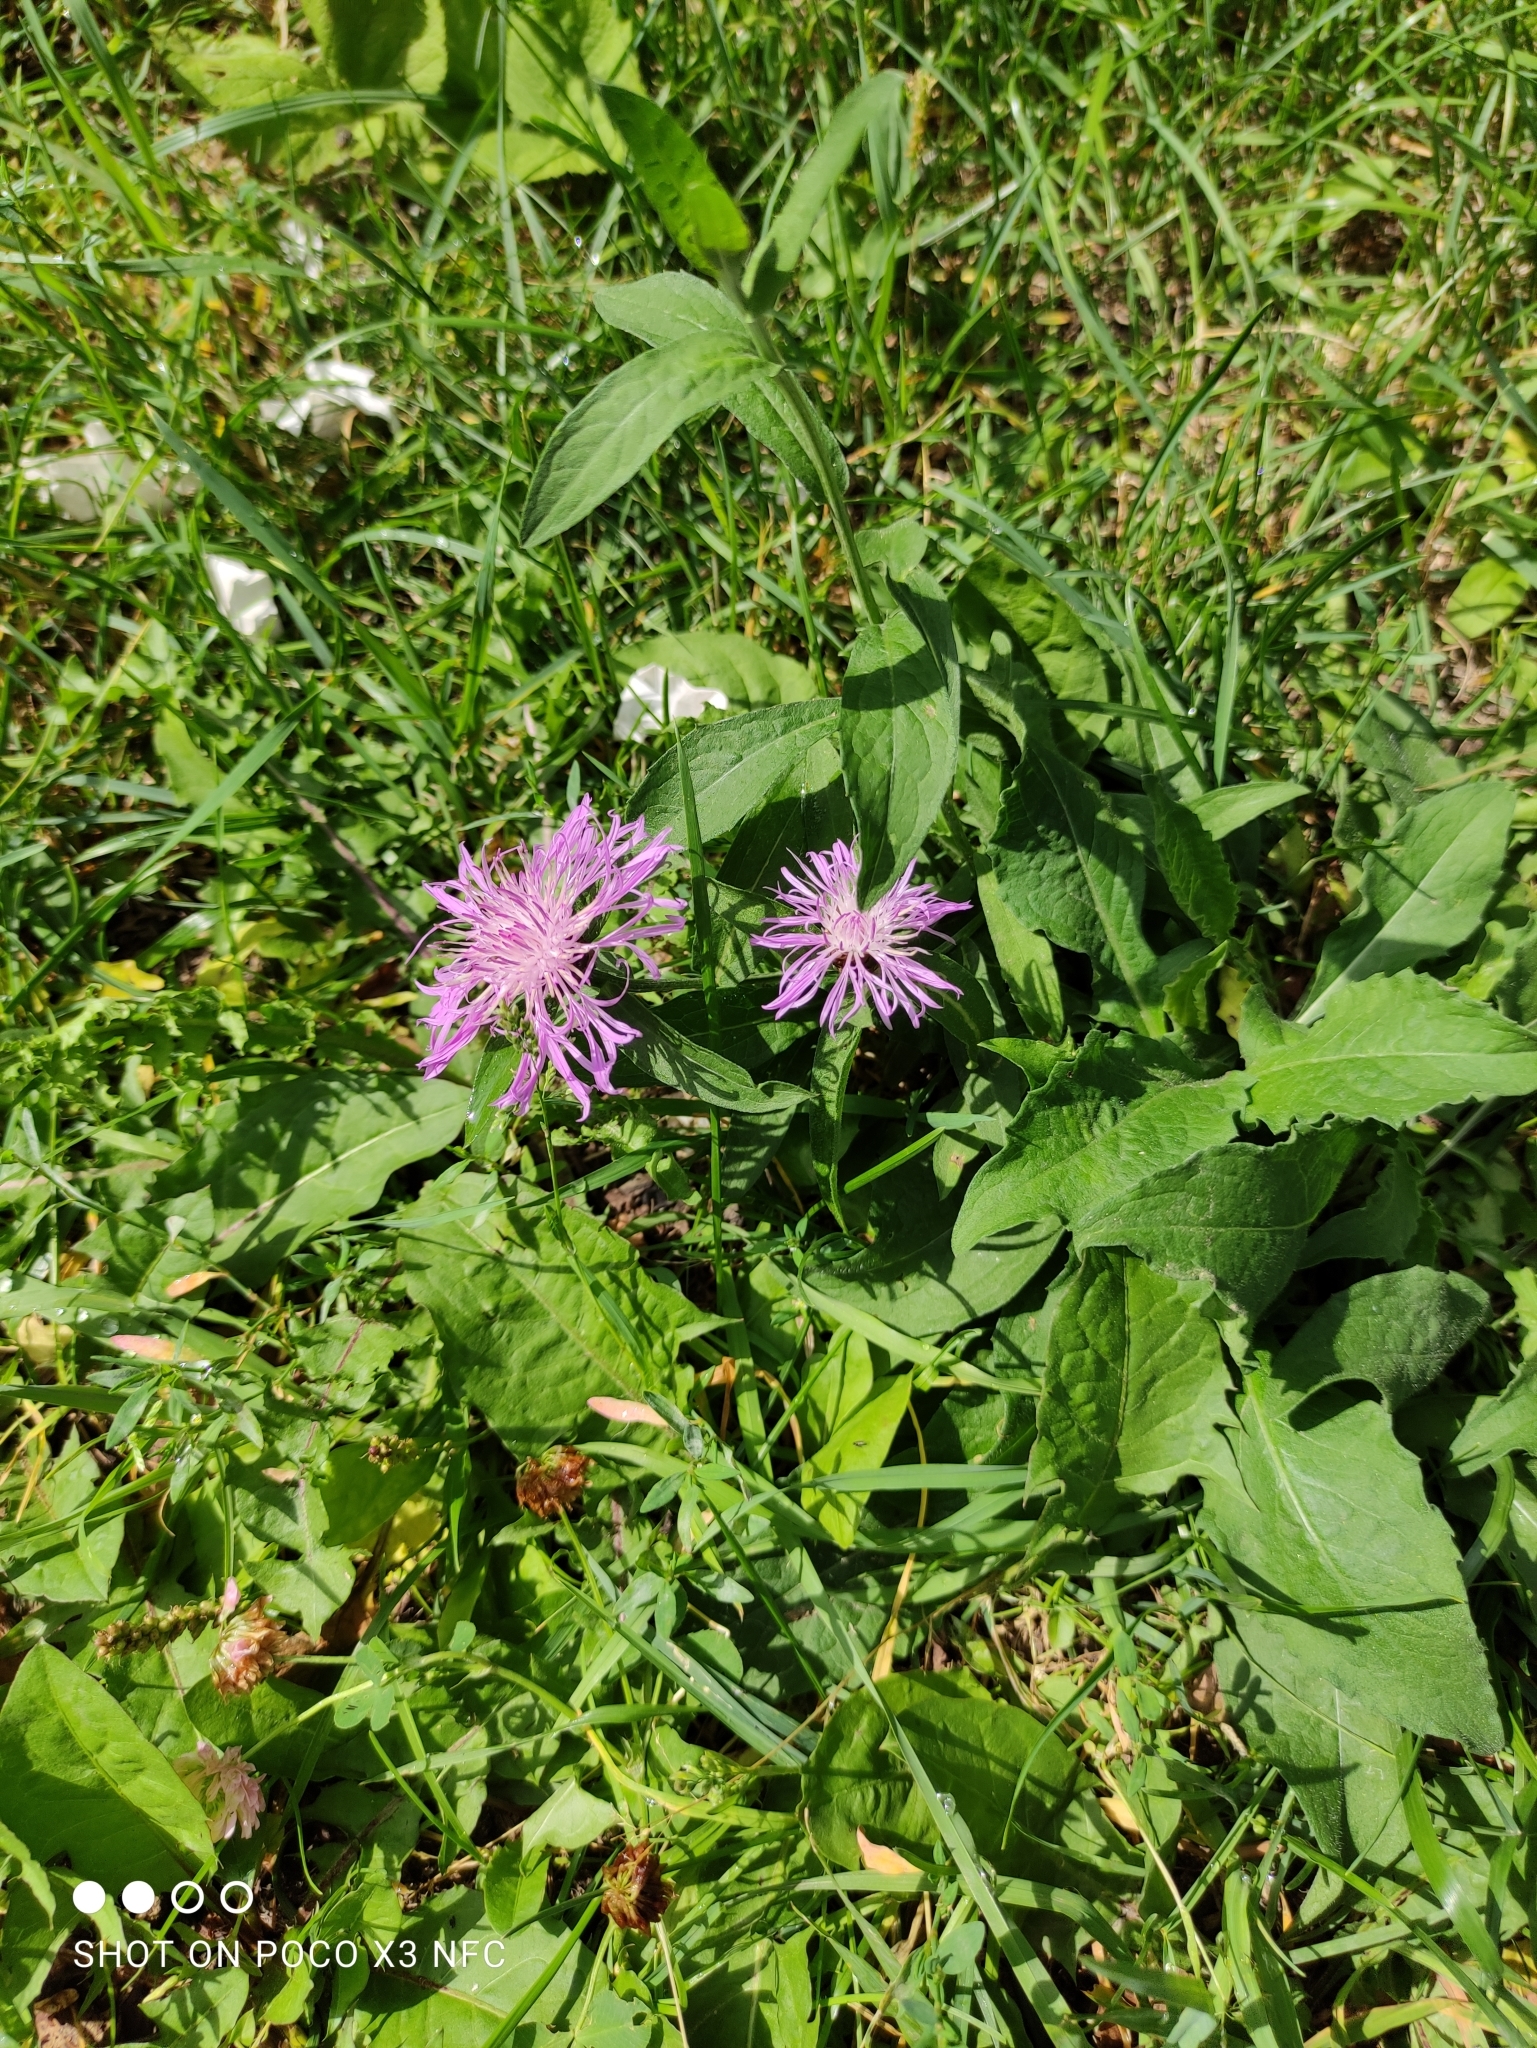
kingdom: Plantae
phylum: Tracheophyta
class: Magnoliopsida
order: Asterales
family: Asteraceae
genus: Centaurea
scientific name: Centaurea jacea
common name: Brown knapweed
